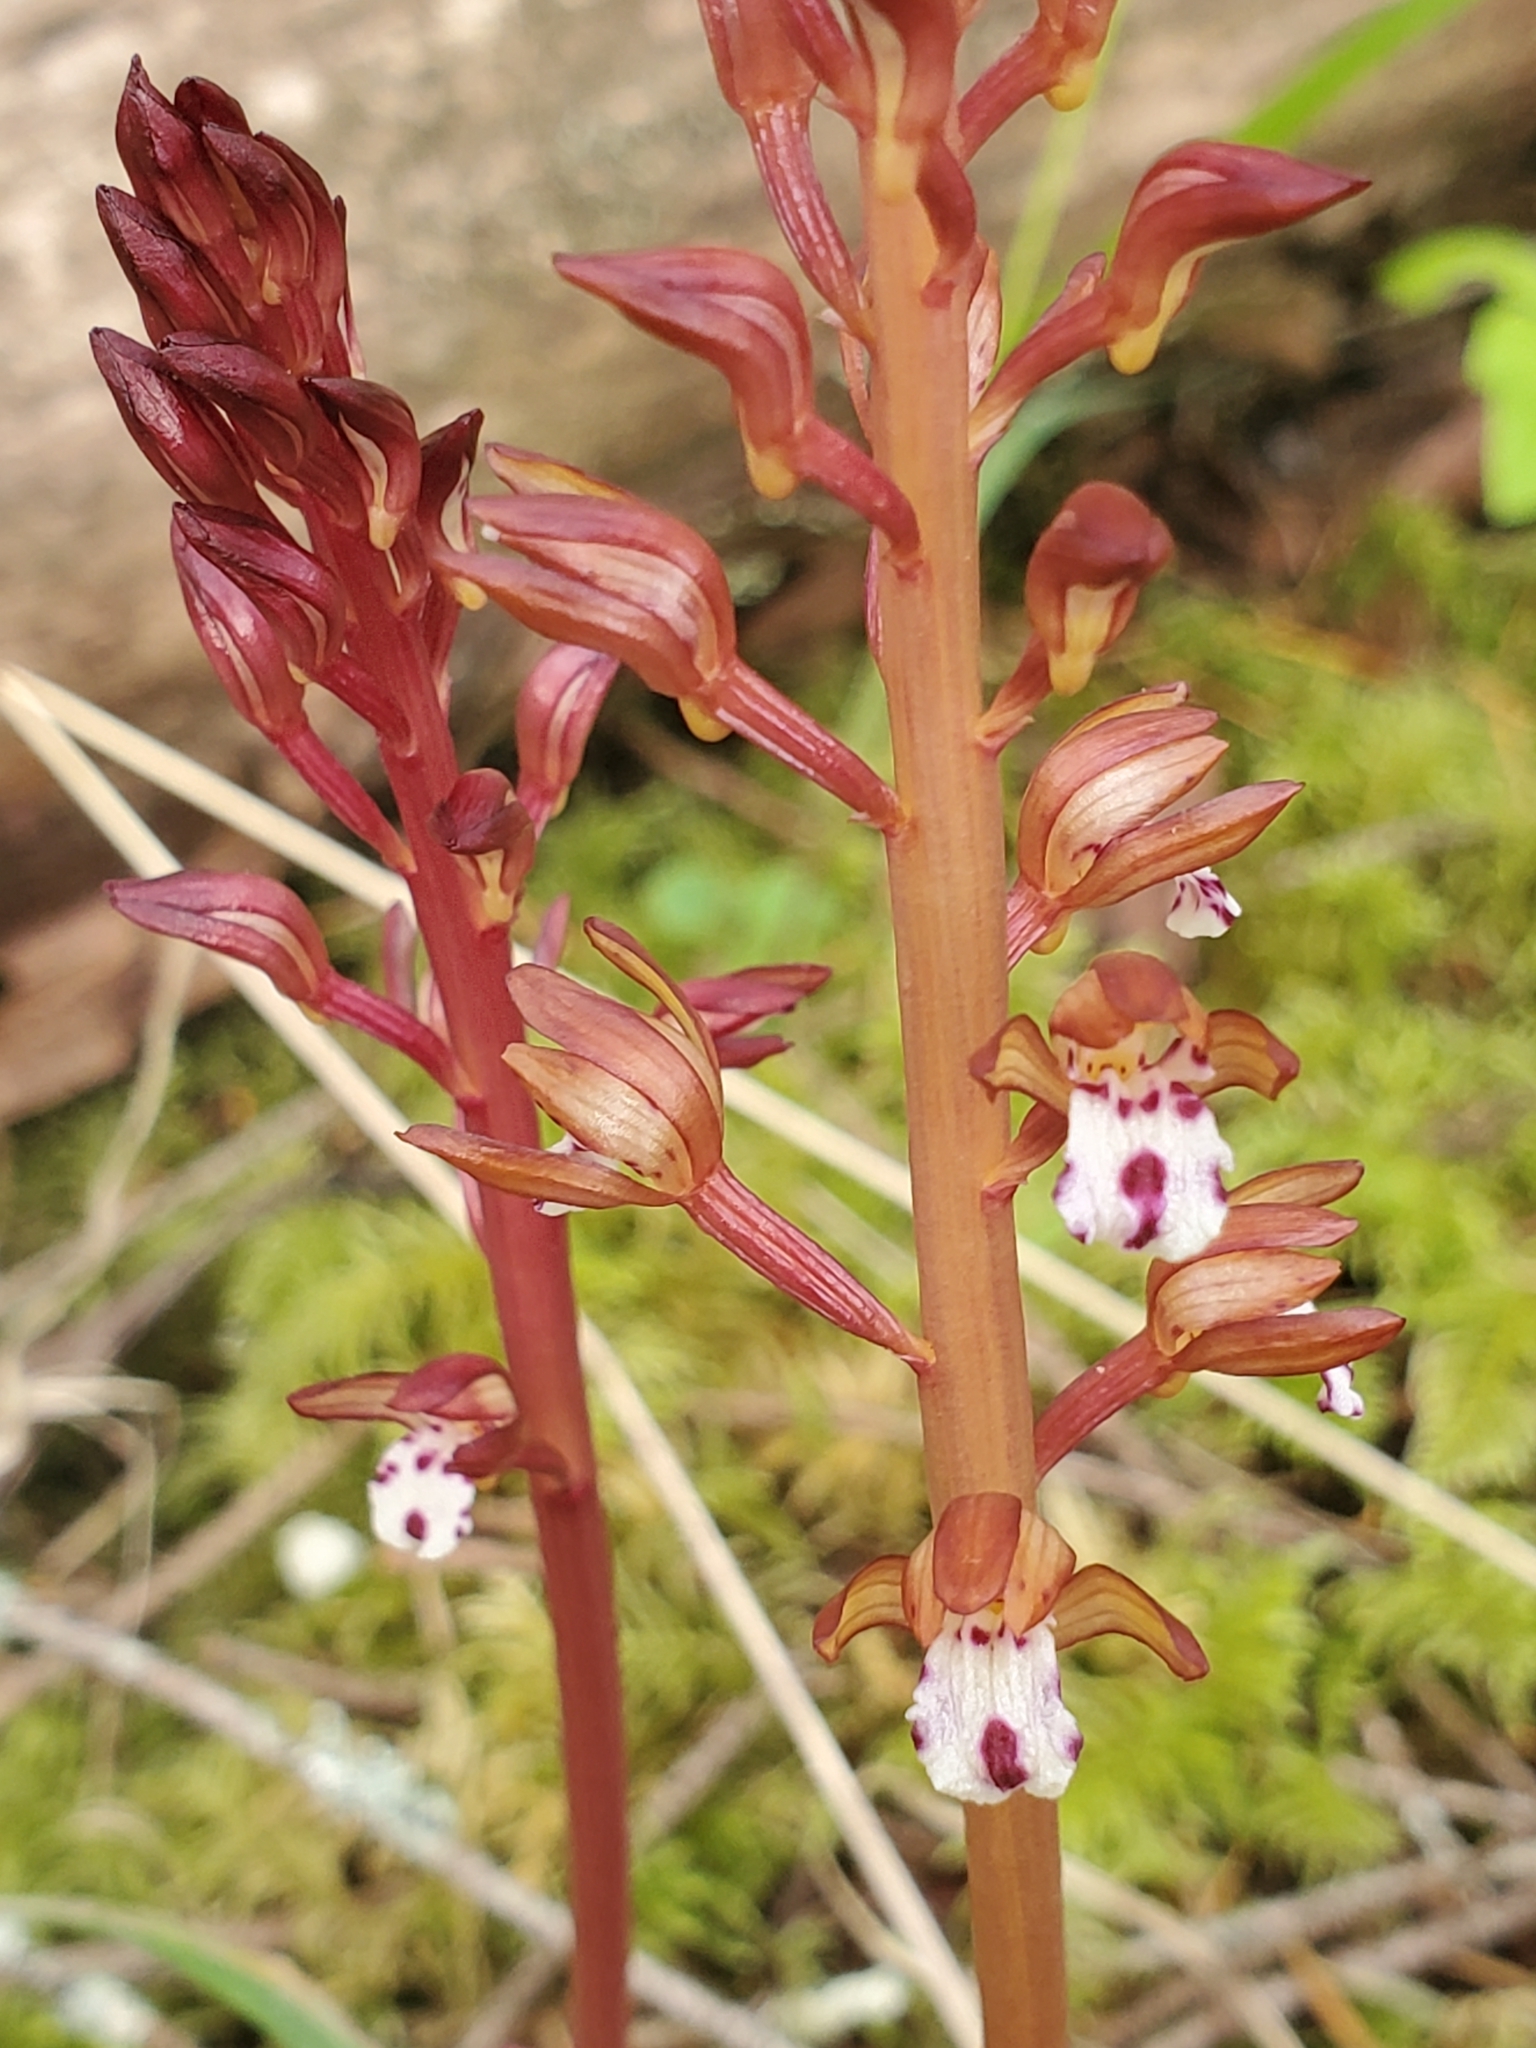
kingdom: Plantae
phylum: Tracheophyta
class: Liliopsida
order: Asparagales
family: Orchidaceae
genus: Corallorhiza
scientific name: Corallorhiza maculata
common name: Spotted coralroot
